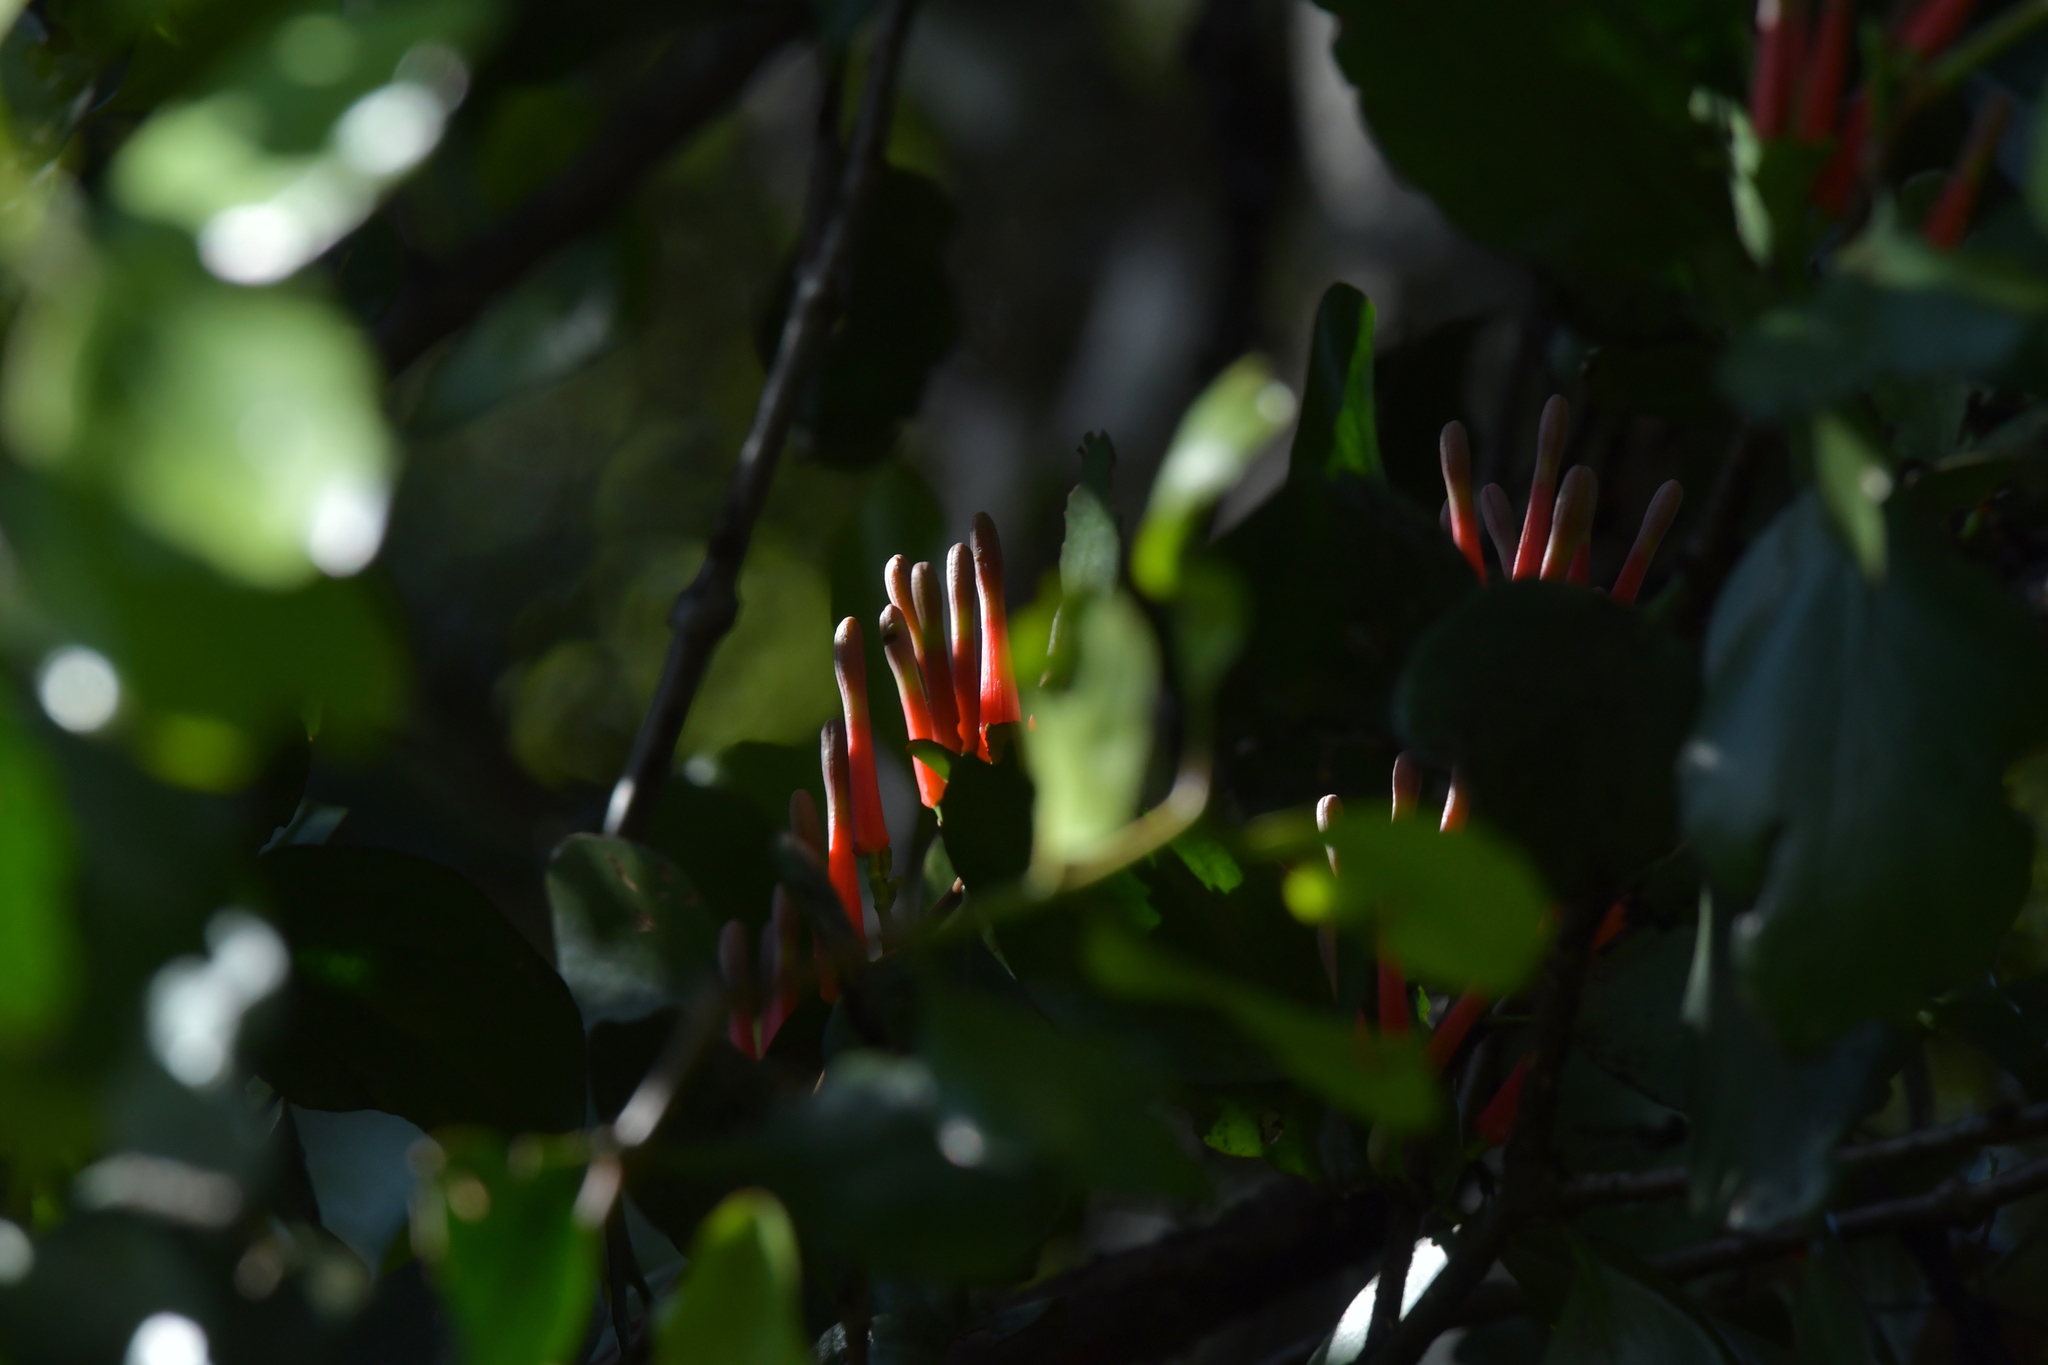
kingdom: Plantae
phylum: Tracheophyta
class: Magnoliopsida
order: Santalales
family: Loranthaceae
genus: Peraxilla
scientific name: Peraxilla colensoi
